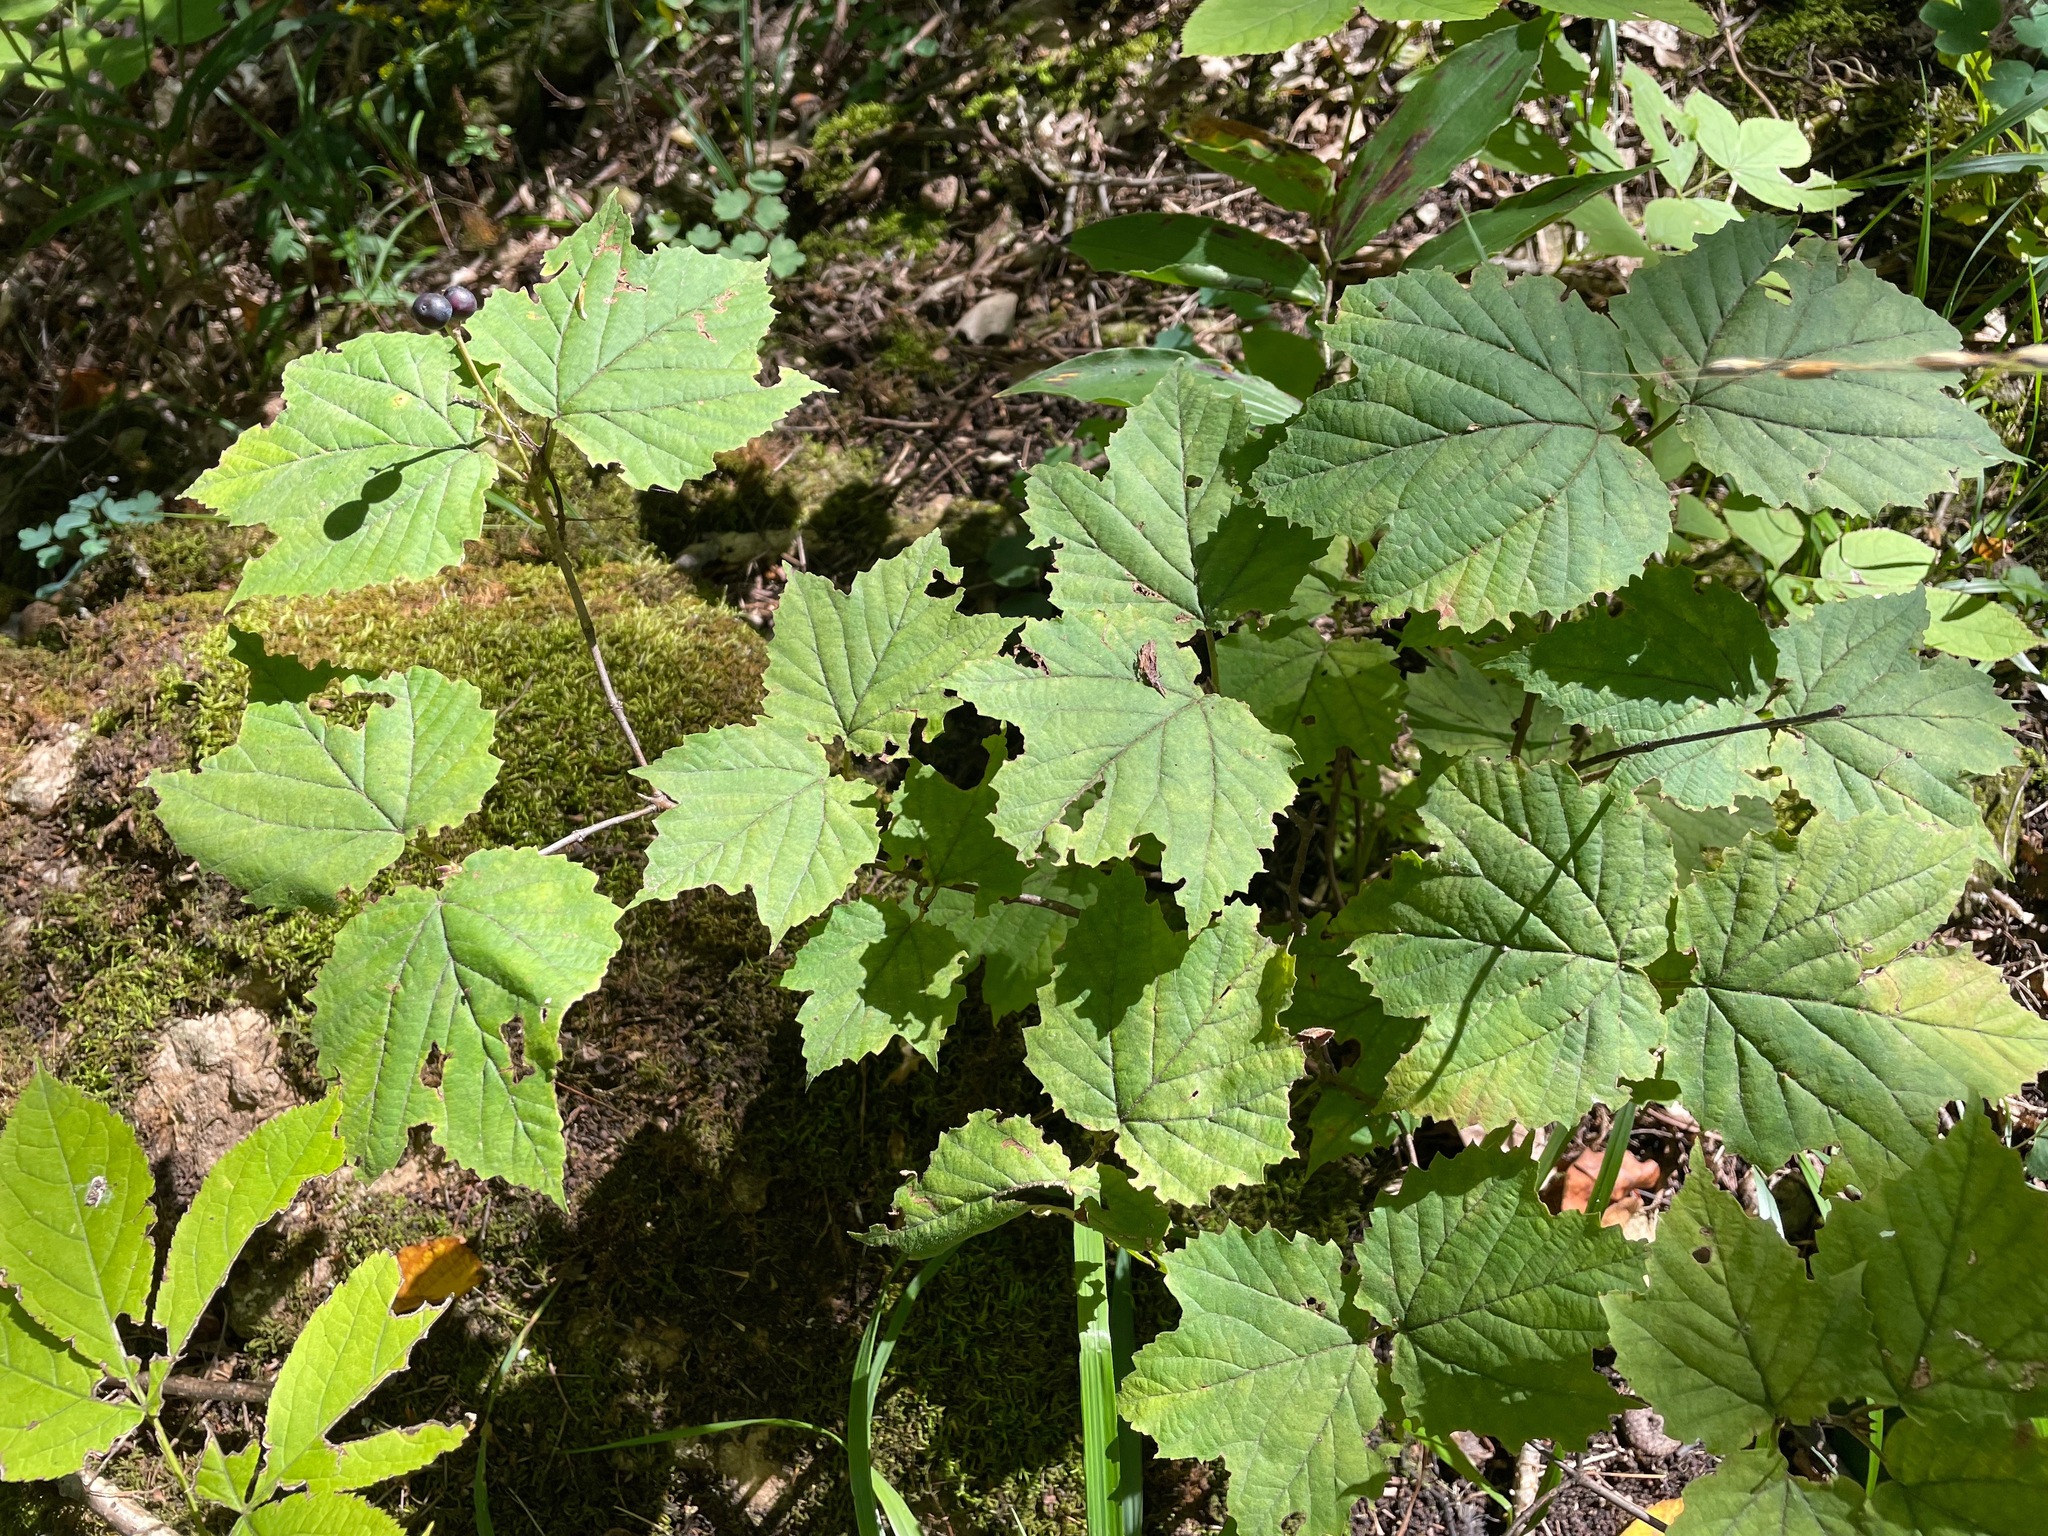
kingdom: Plantae
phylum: Tracheophyta
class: Magnoliopsida
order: Dipsacales
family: Viburnaceae
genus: Viburnum
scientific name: Viburnum acerifolium
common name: Dockmackie
